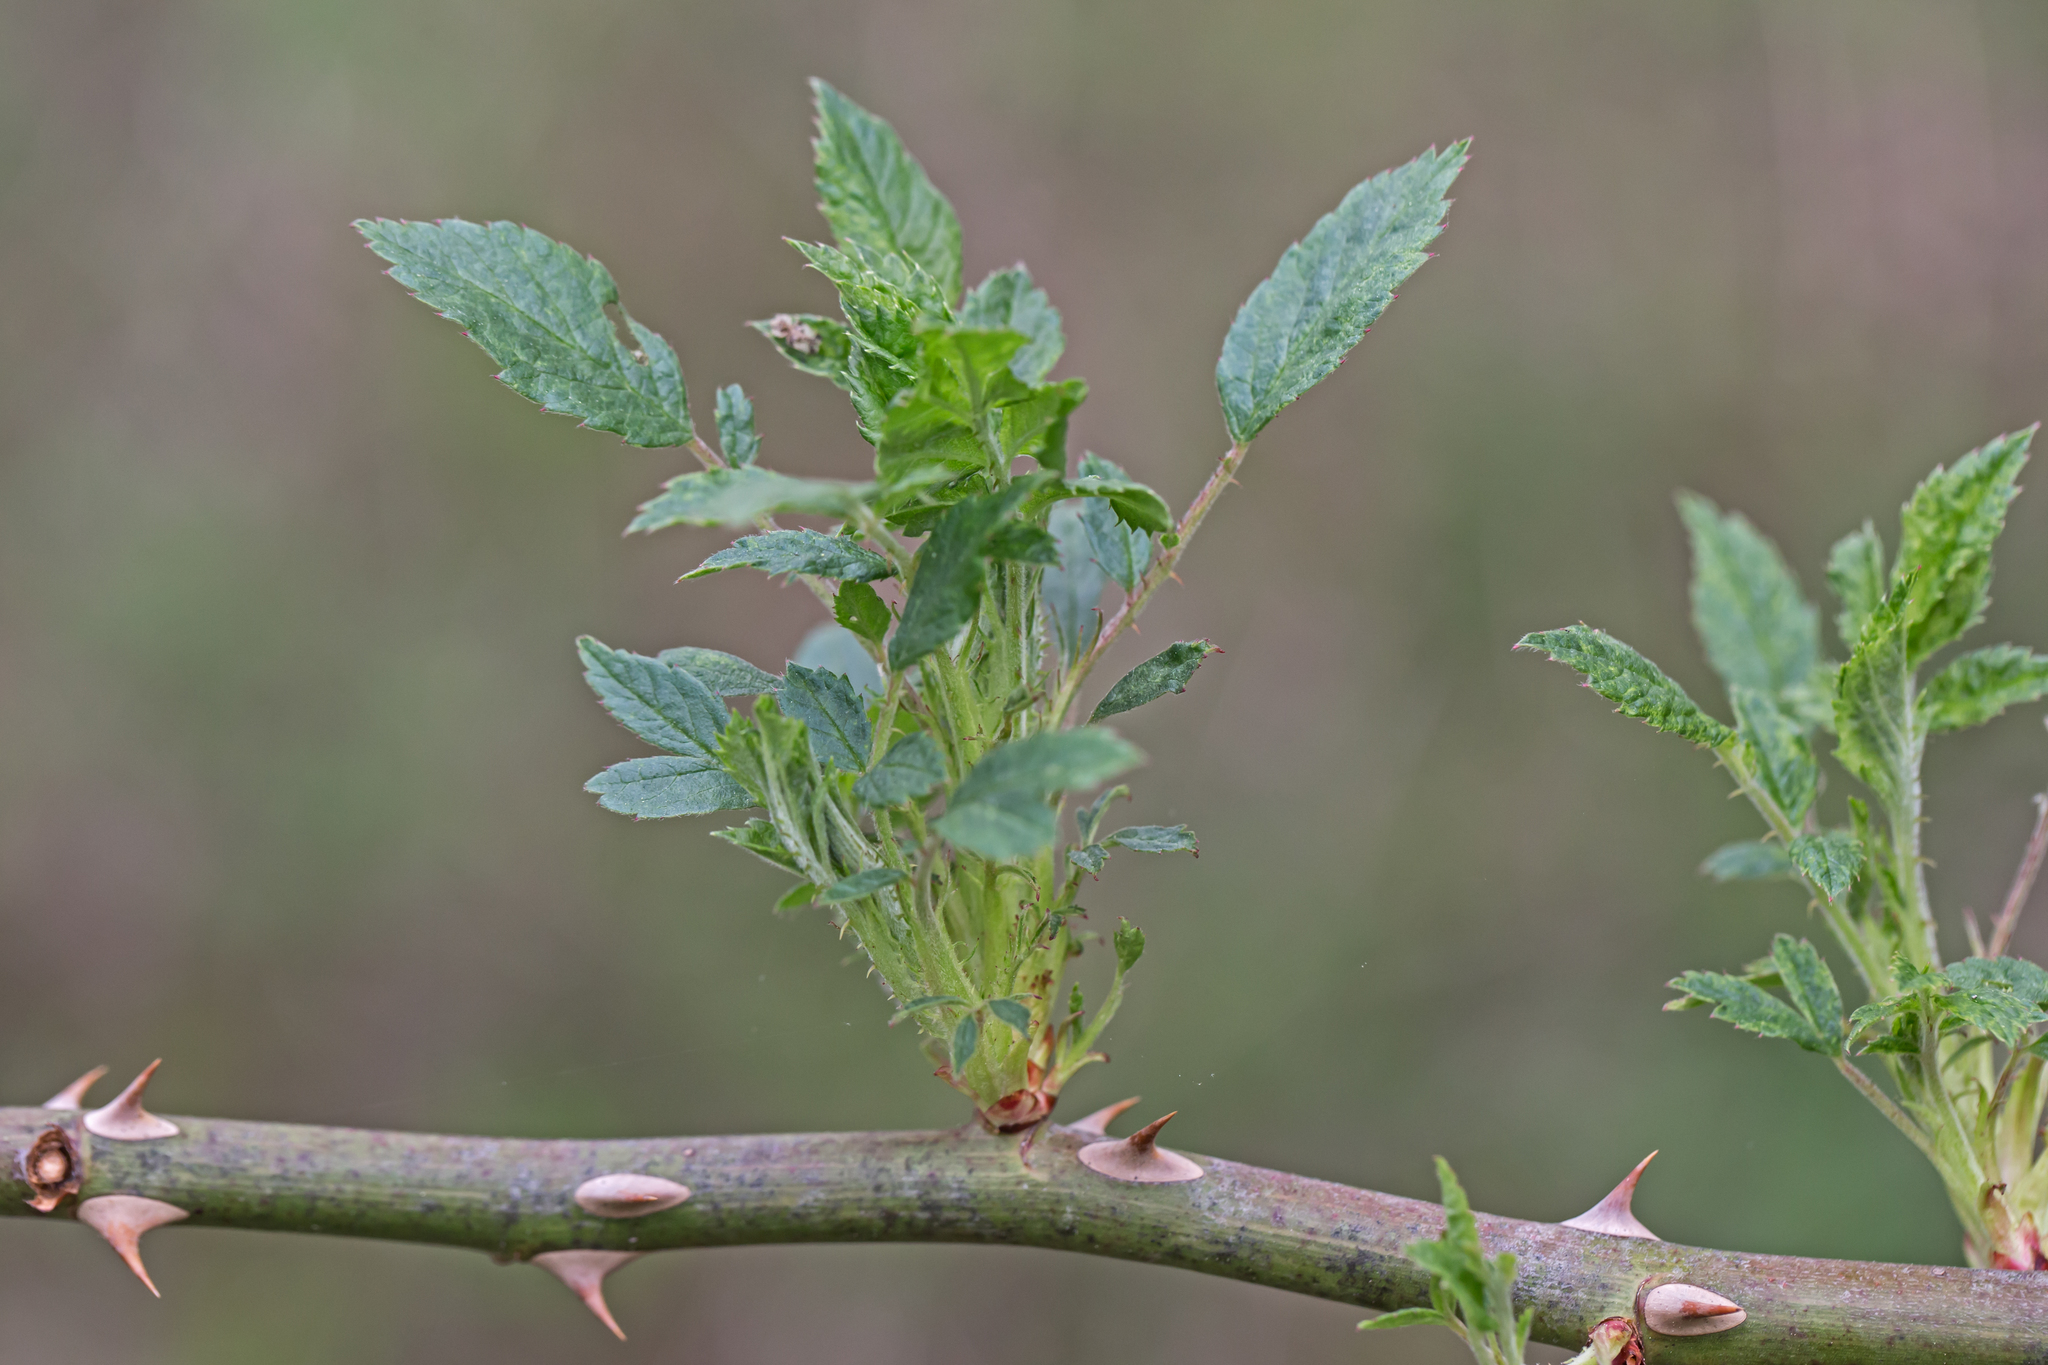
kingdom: Plantae
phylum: Tracheophyta
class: Magnoliopsida
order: Rosales
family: Rosaceae
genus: Rosa
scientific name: Rosa multiflora
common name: Multiflora rose
